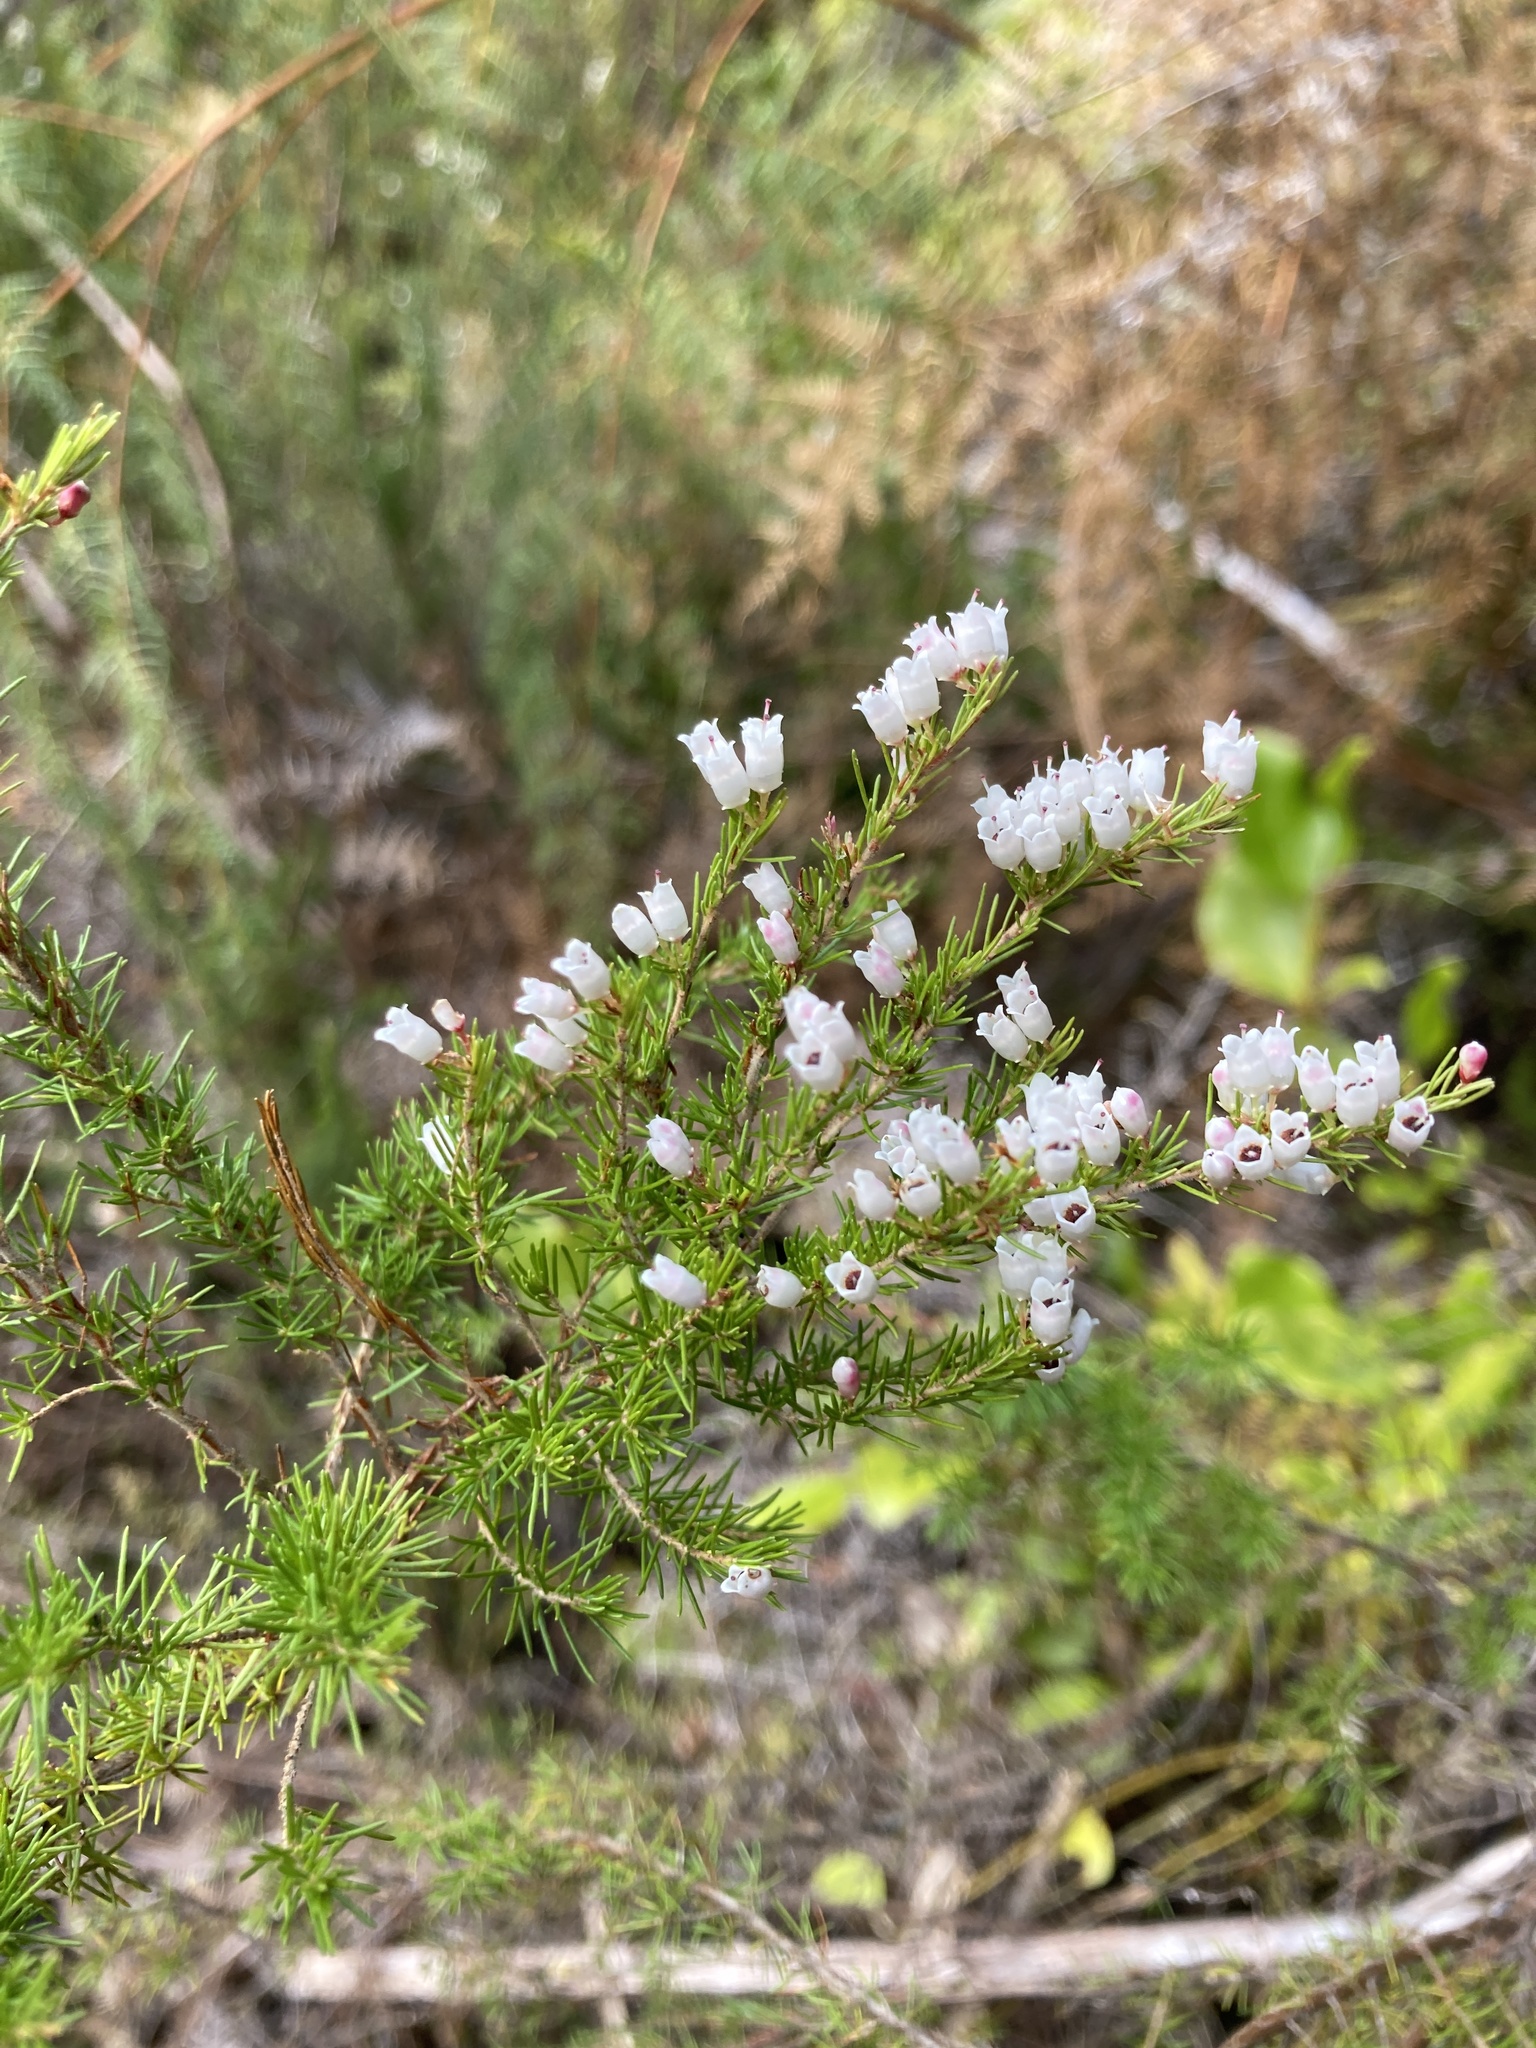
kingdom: Plantae
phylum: Tracheophyta
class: Magnoliopsida
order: Ericales
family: Ericaceae
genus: Erica
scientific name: Erica lusitanica
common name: Spanish heath
